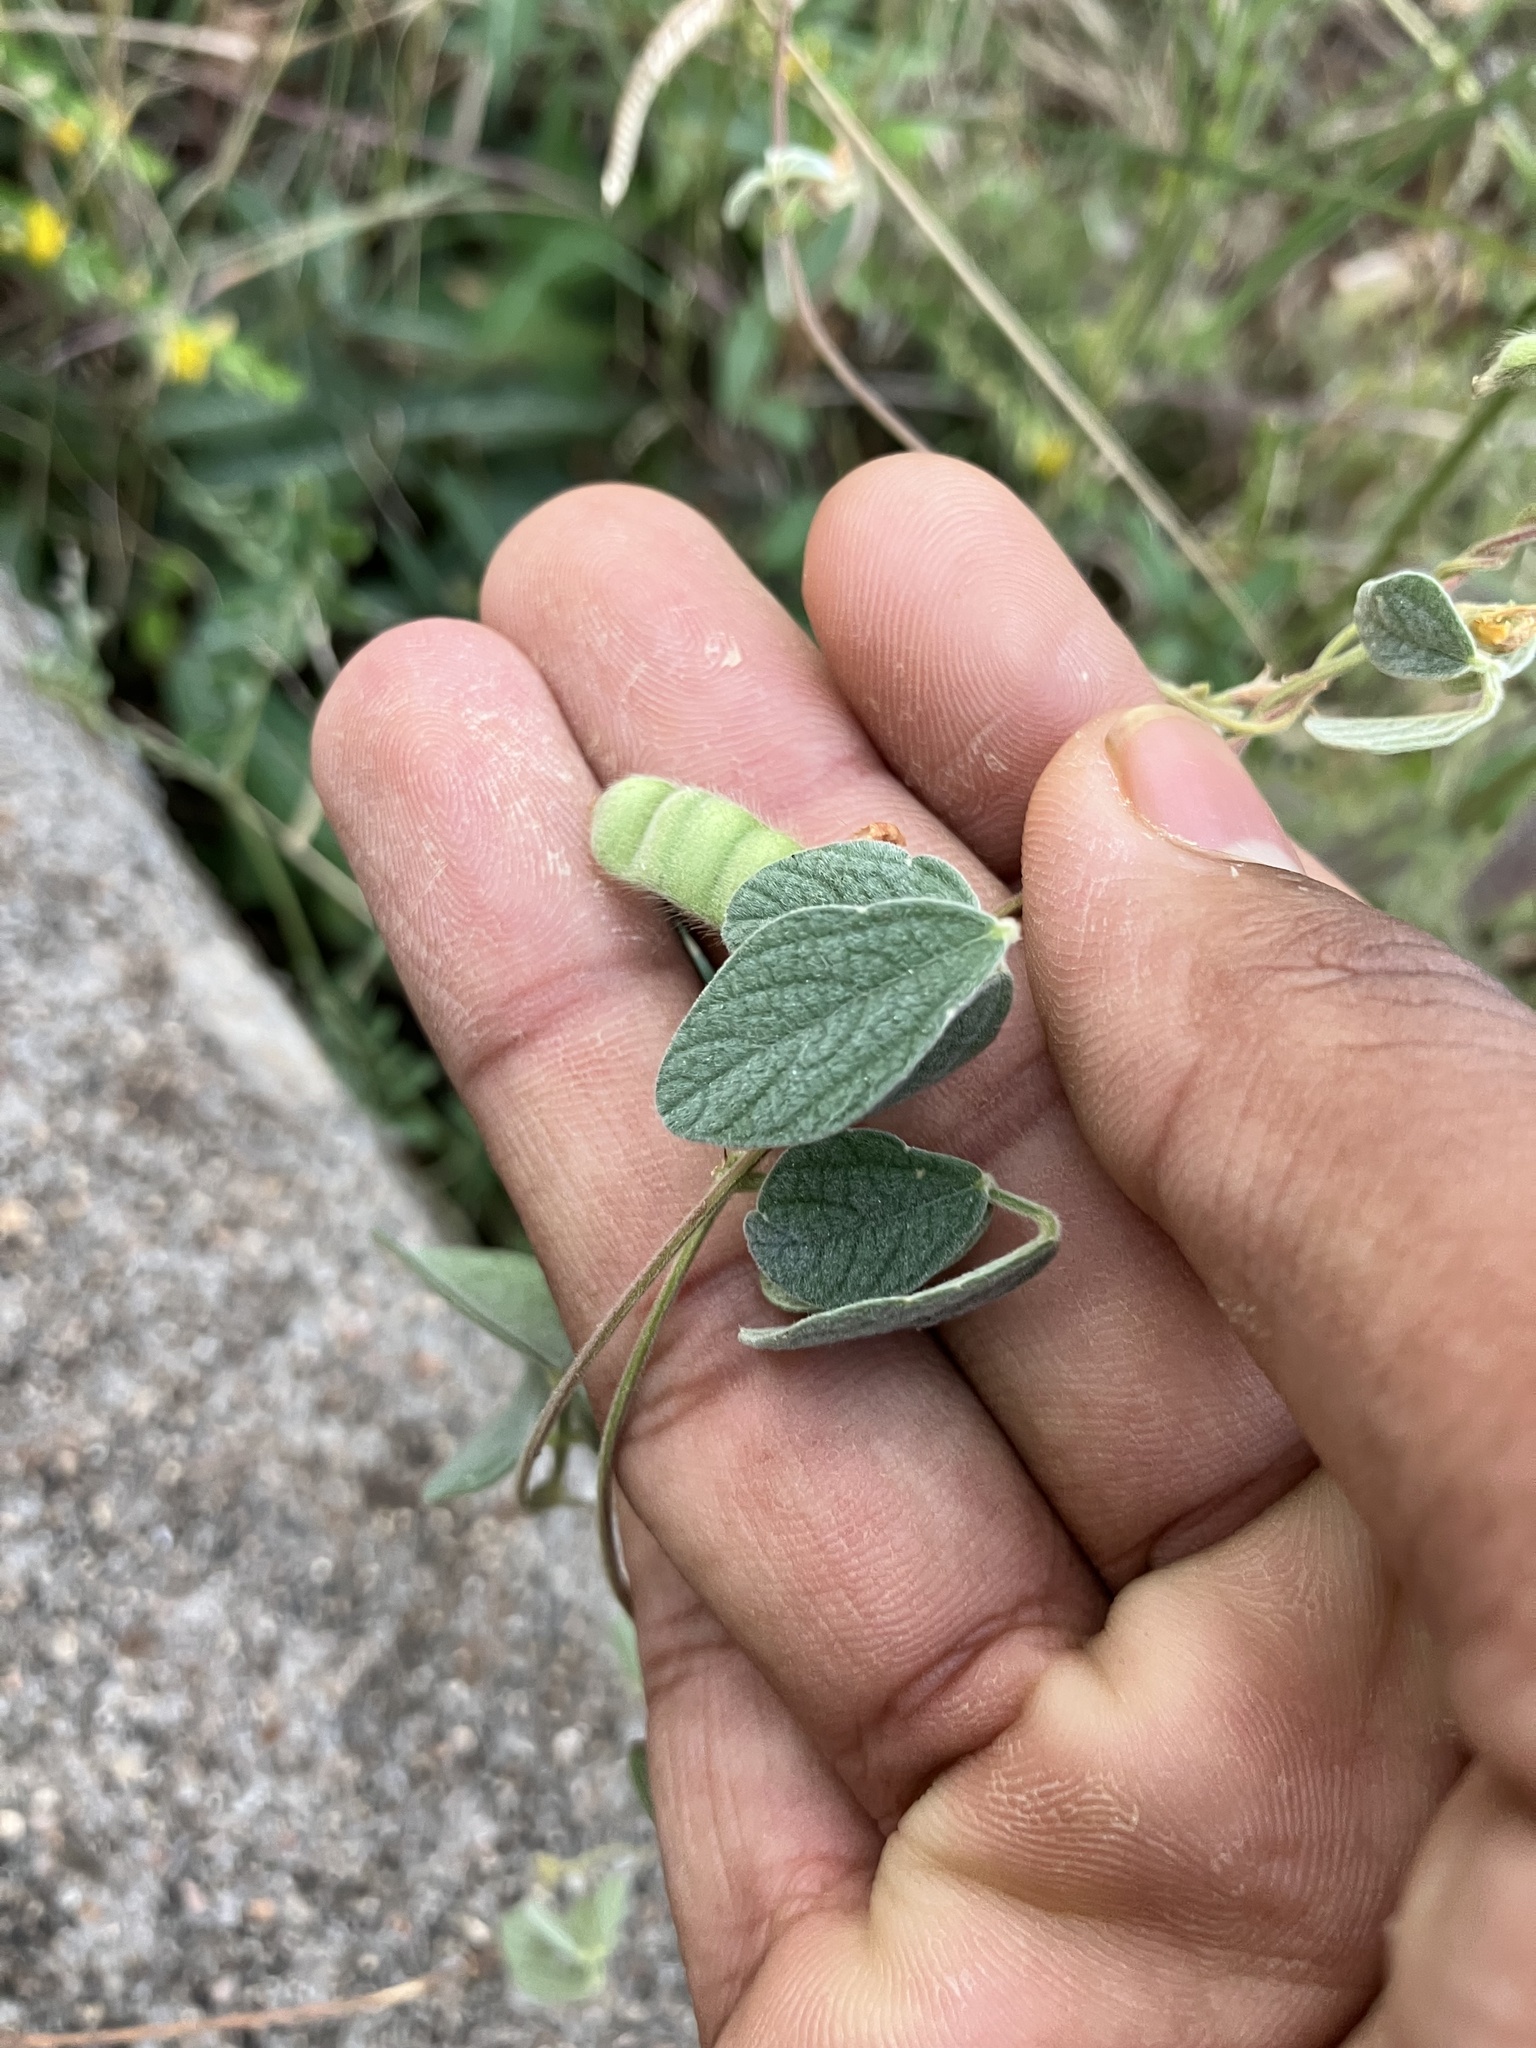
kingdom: Plantae
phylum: Tracheophyta
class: Magnoliopsida
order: Fabales
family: Fabaceae
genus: Cajanus
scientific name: Cajanus scarabaeoides
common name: Showy pigeonpea
